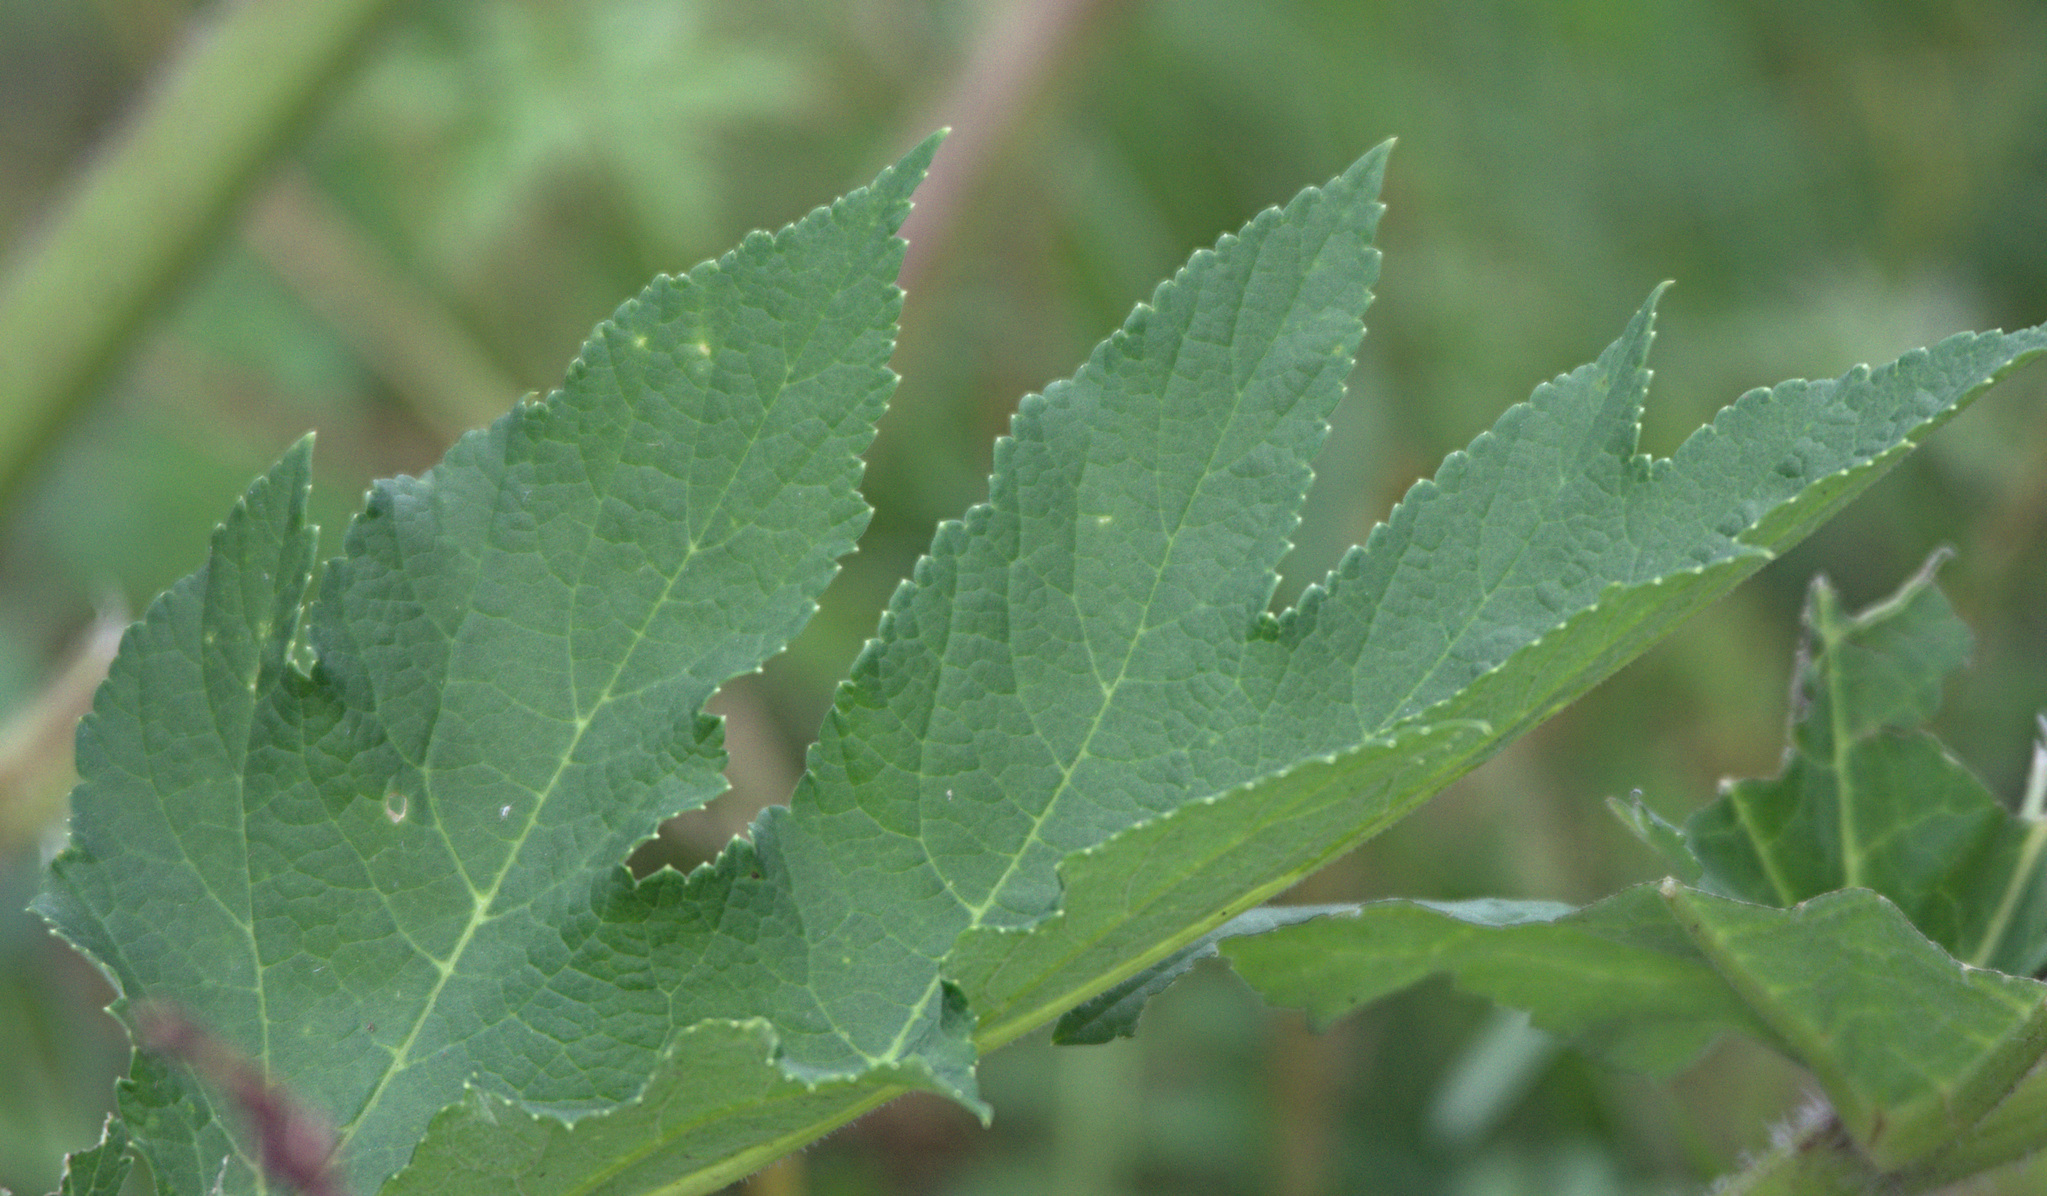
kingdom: Plantae
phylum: Tracheophyta
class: Magnoliopsida
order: Apiales
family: Apiaceae
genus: Heracleum
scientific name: Heracleum dissectum
